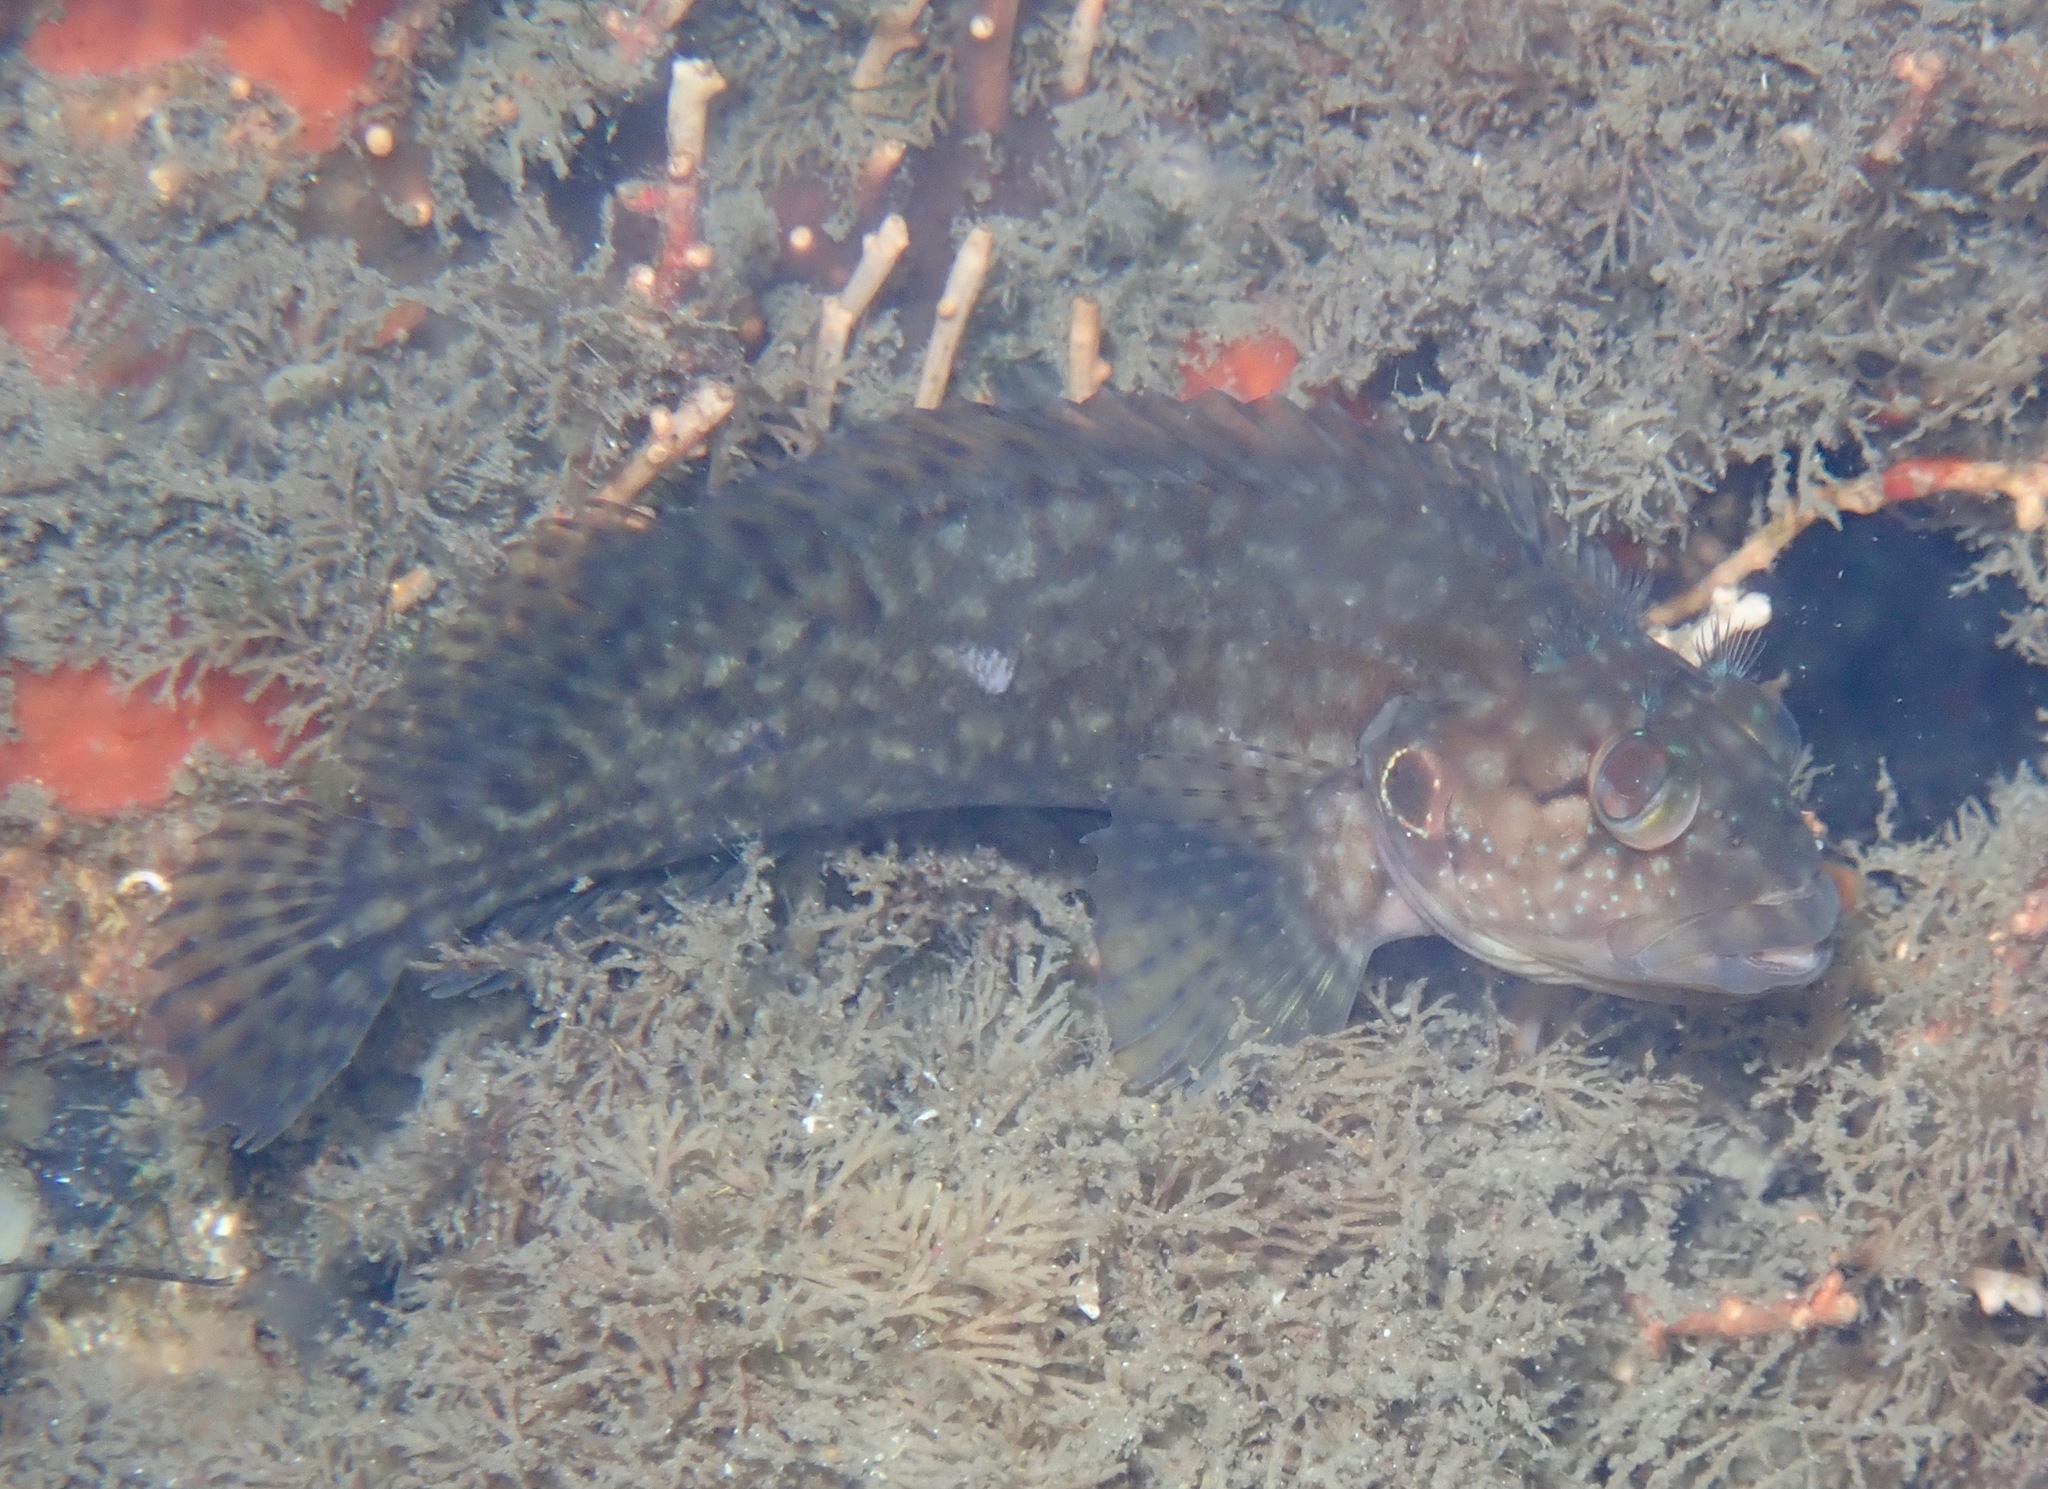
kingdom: Animalia
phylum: Chordata
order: Perciformes
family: Labrisomidae
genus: Labrisomus
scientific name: Labrisomus conditus
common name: Masquerader hairy blenny
